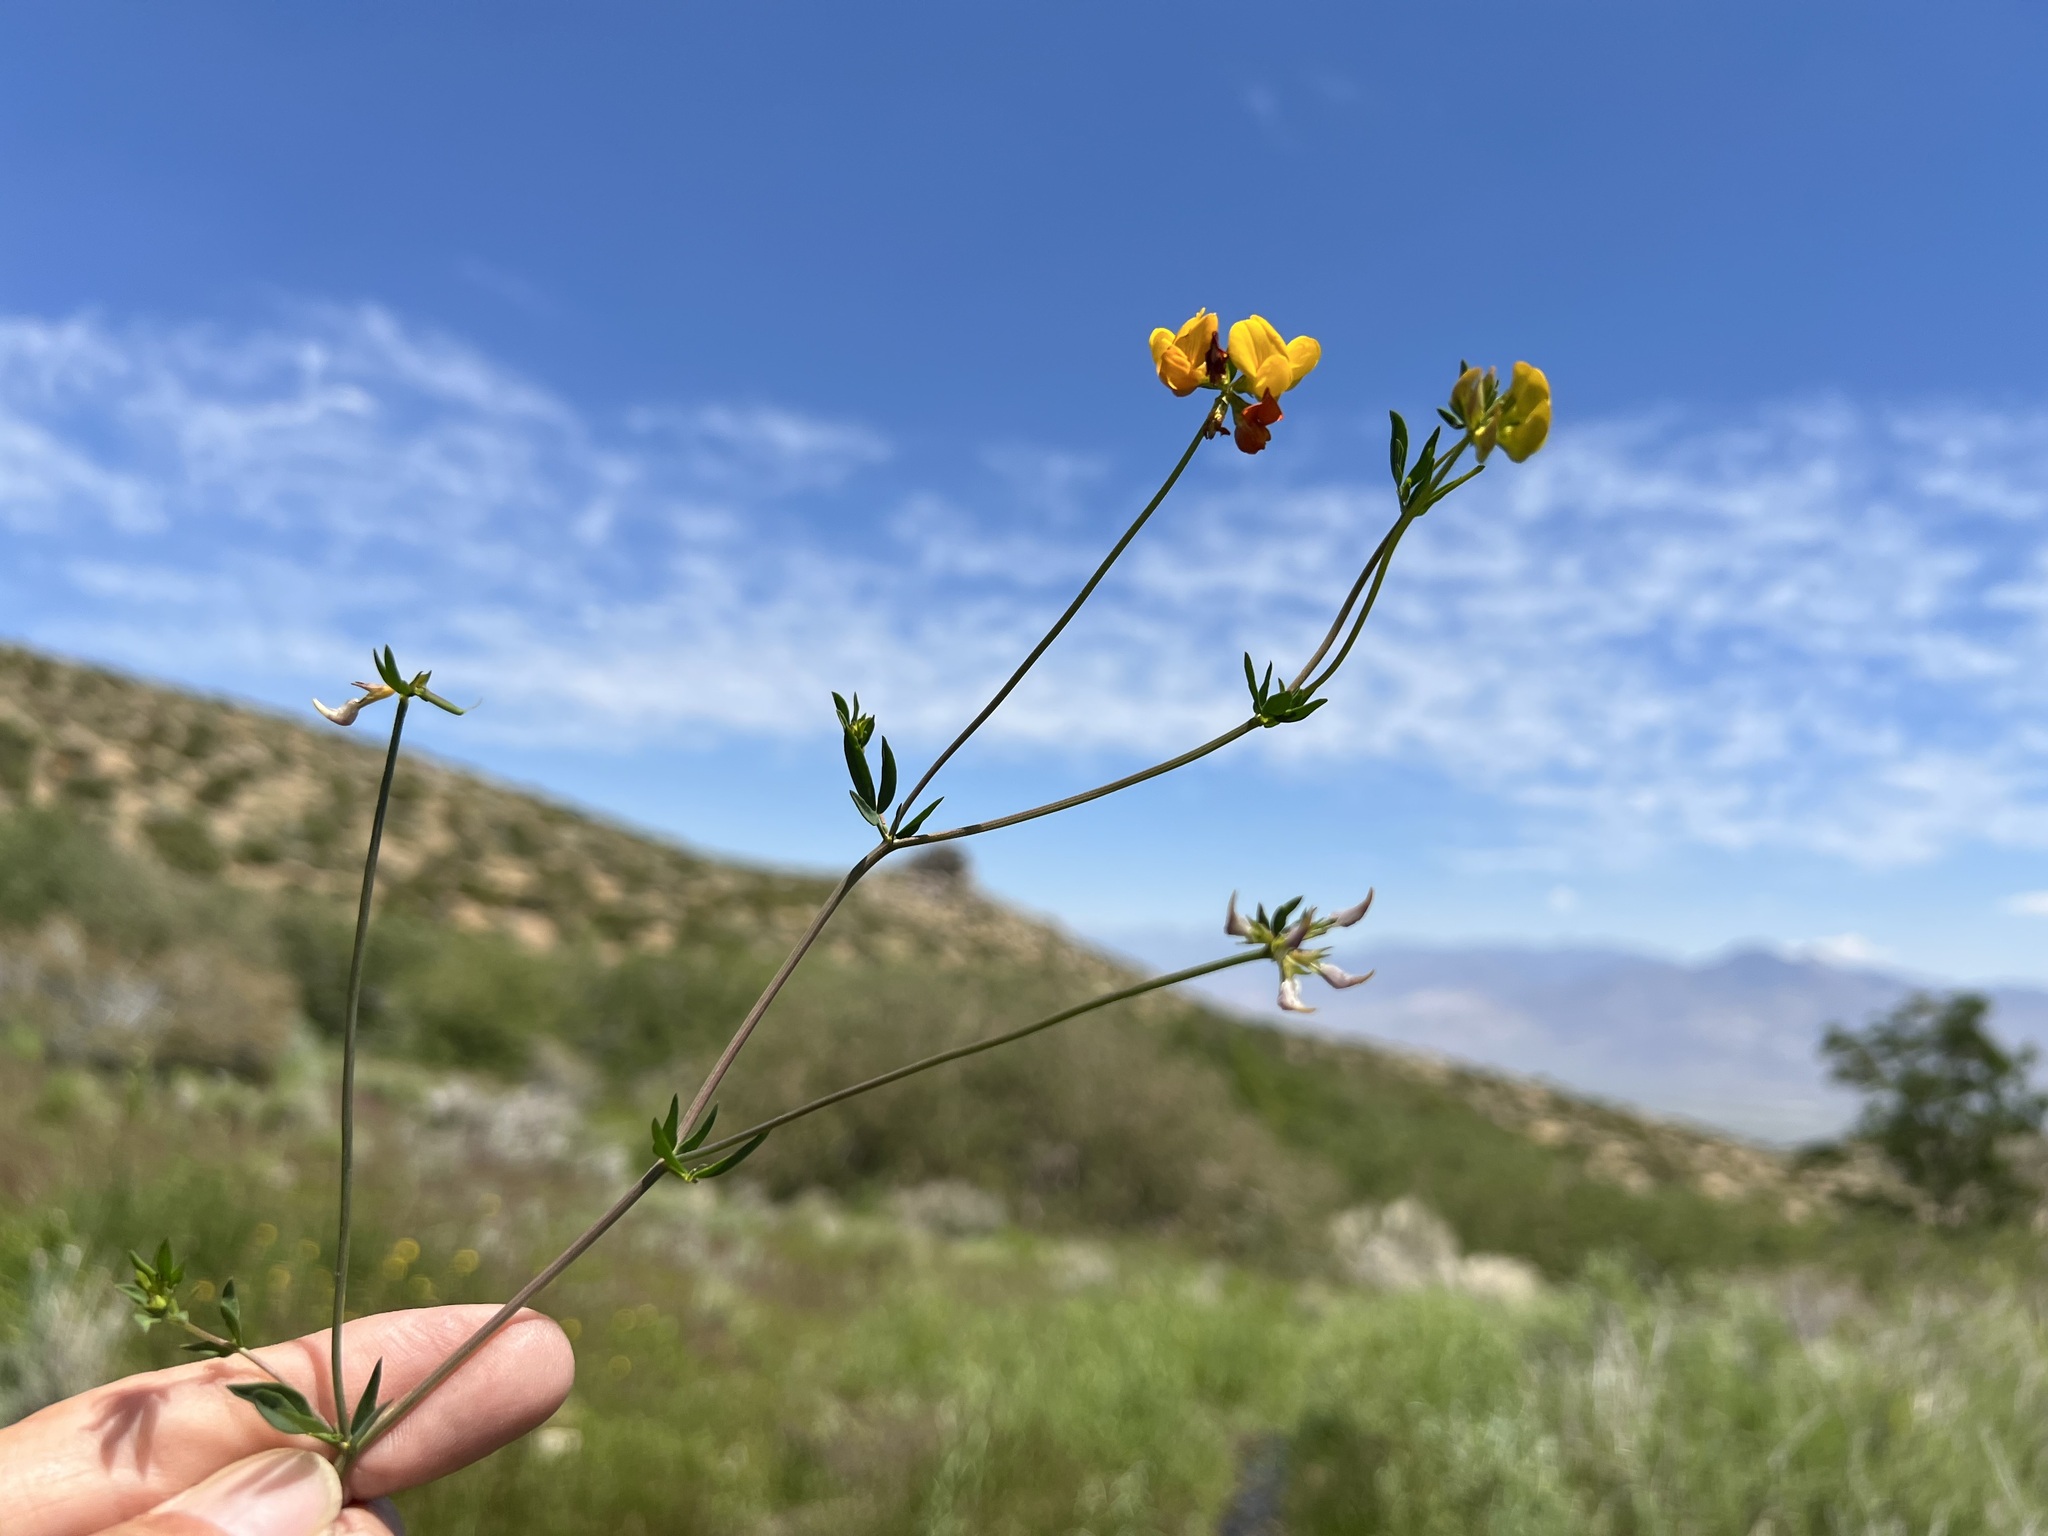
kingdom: Plantae
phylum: Tracheophyta
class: Magnoliopsida
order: Fabales
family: Fabaceae
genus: Lotus
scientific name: Lotus corniculatus
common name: Common bird's-foot-trefoil
